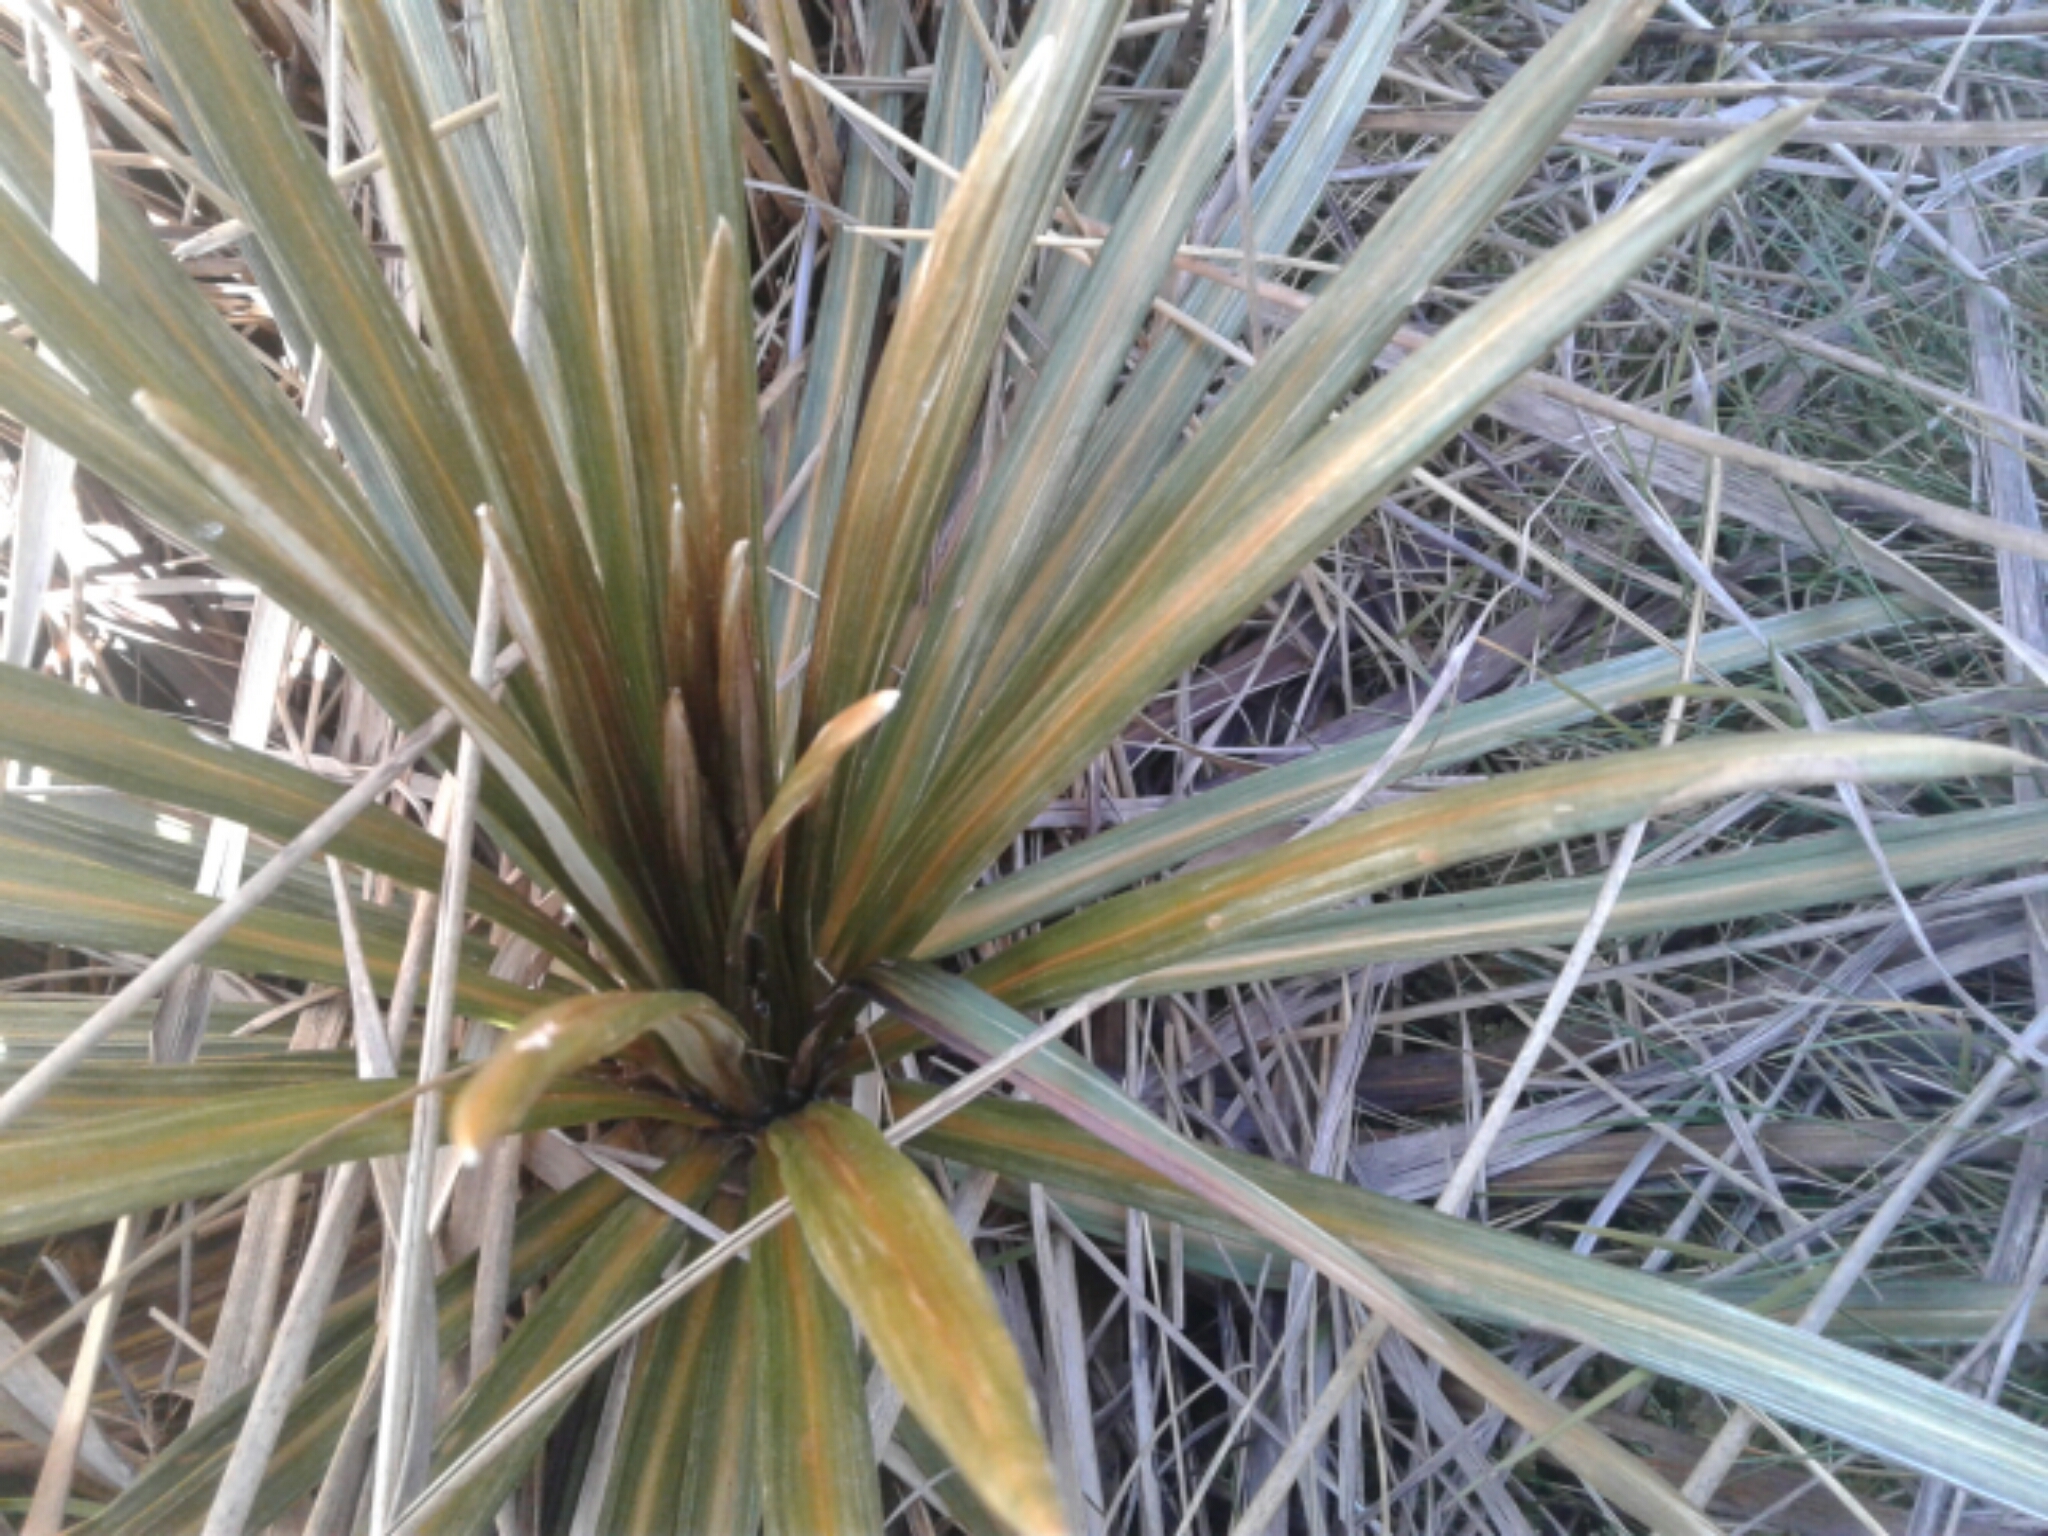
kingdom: Plantae
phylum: Tracheophyta
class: Magnoliopsida
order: Asterales
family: Asteraceae
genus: Celmisia
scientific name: Celmisia armstrongii
